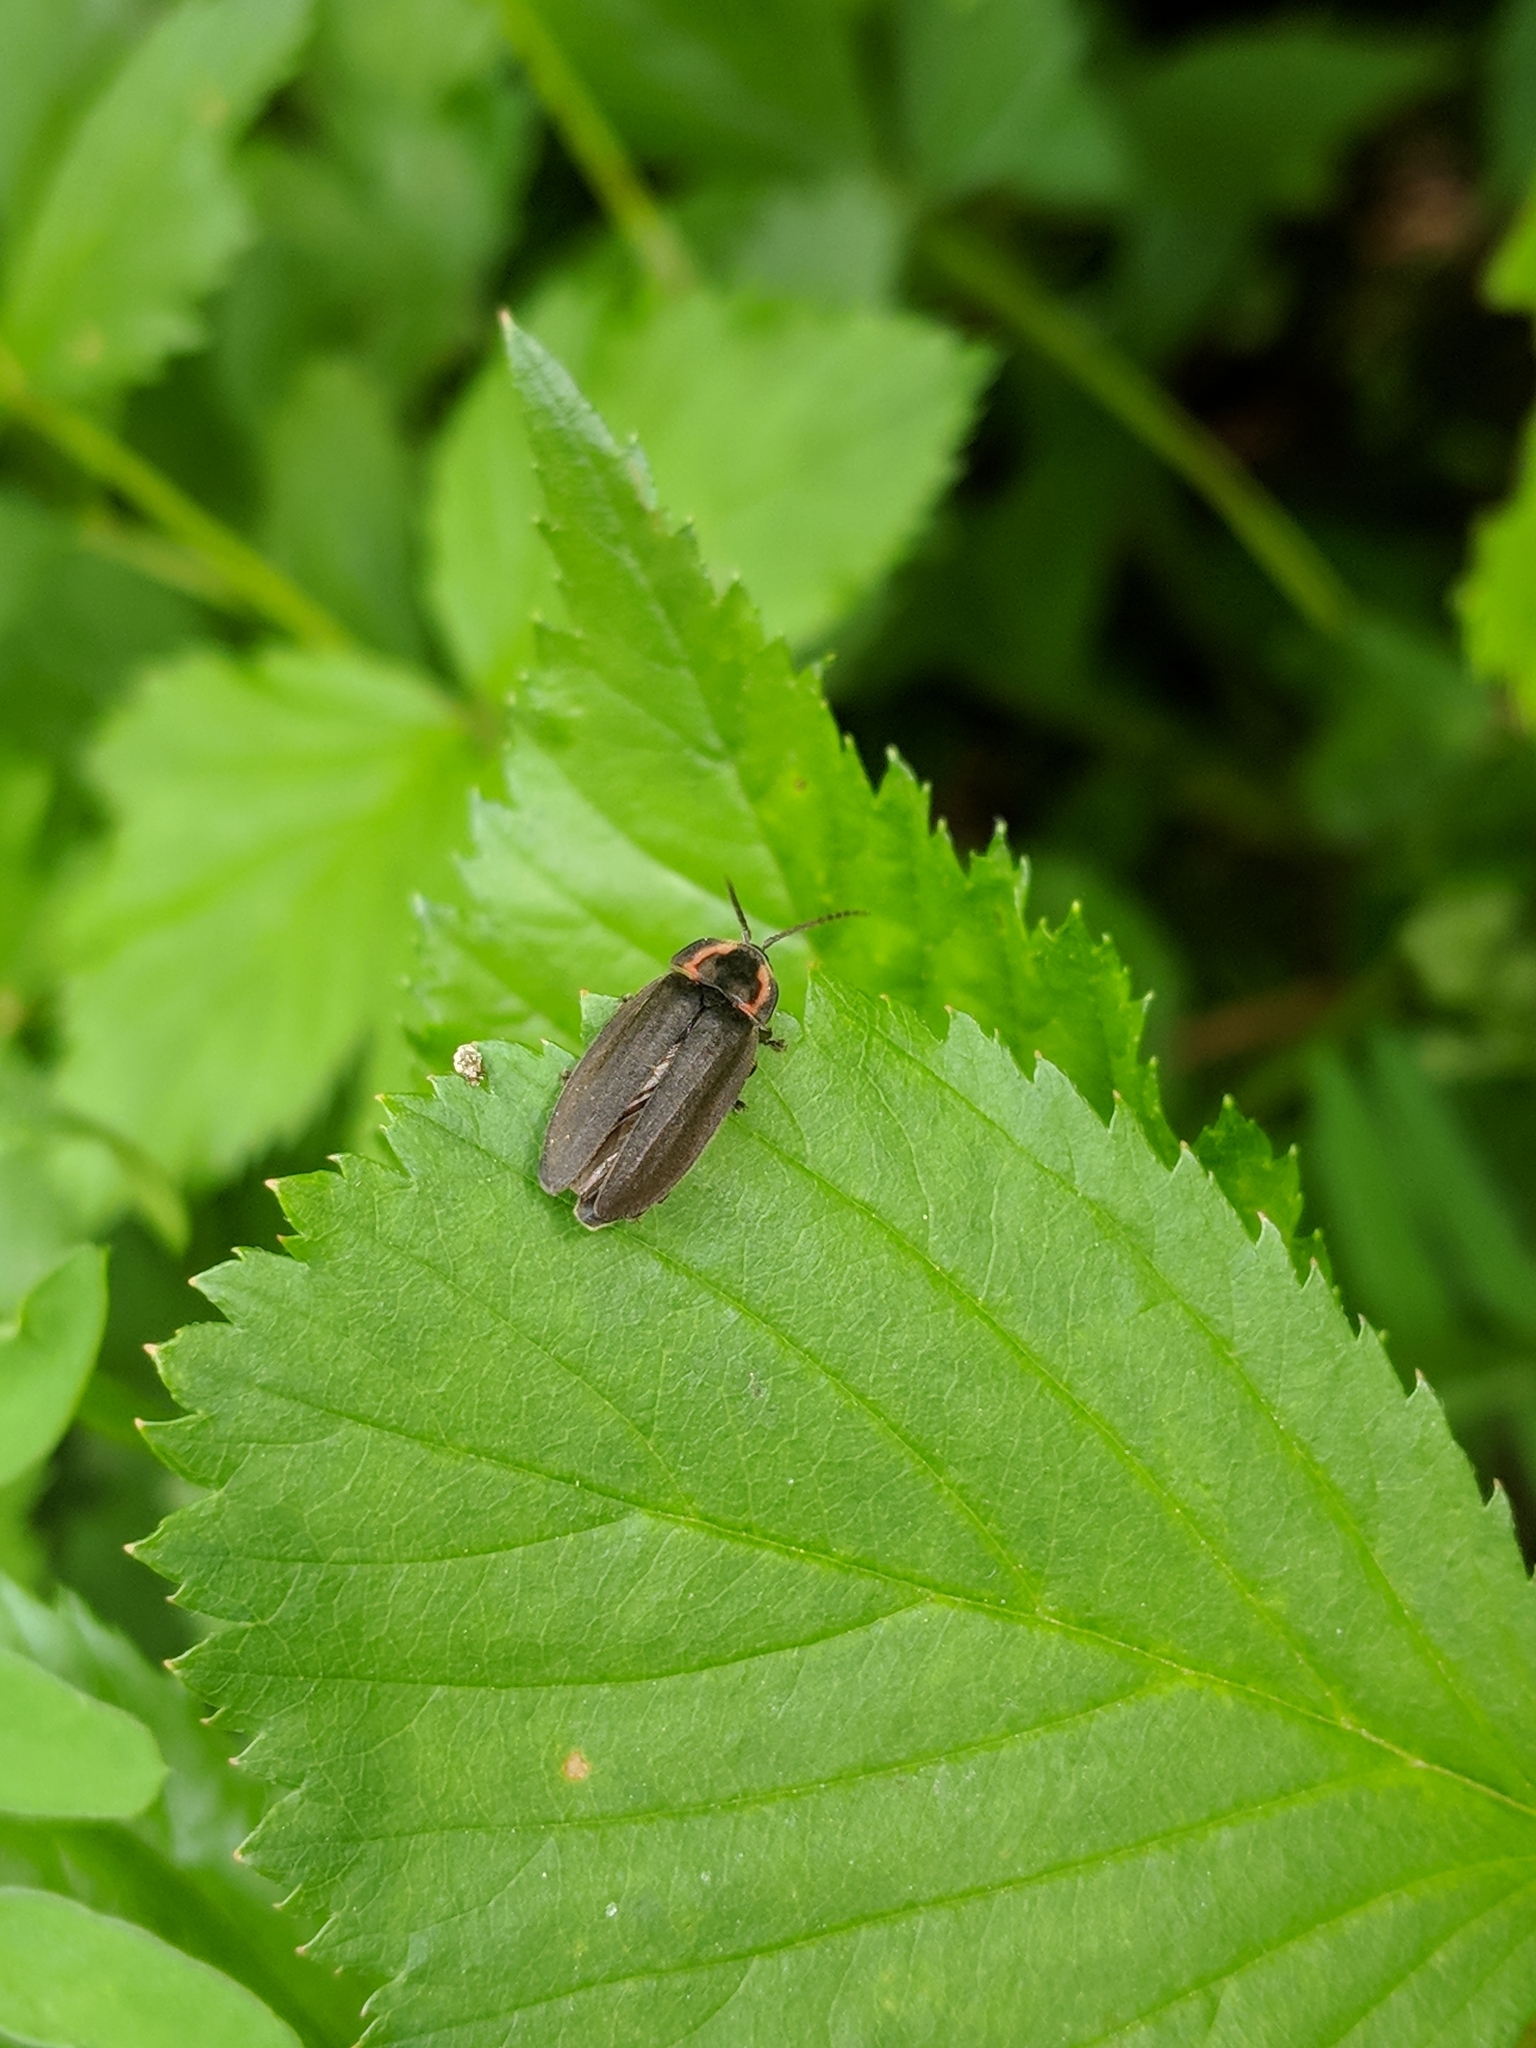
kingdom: Animalia
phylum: Arthropoda
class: Insecta
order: Coleoptera
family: Lampyridae
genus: Photinus
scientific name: Photinus corrusca
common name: Winter firefly
